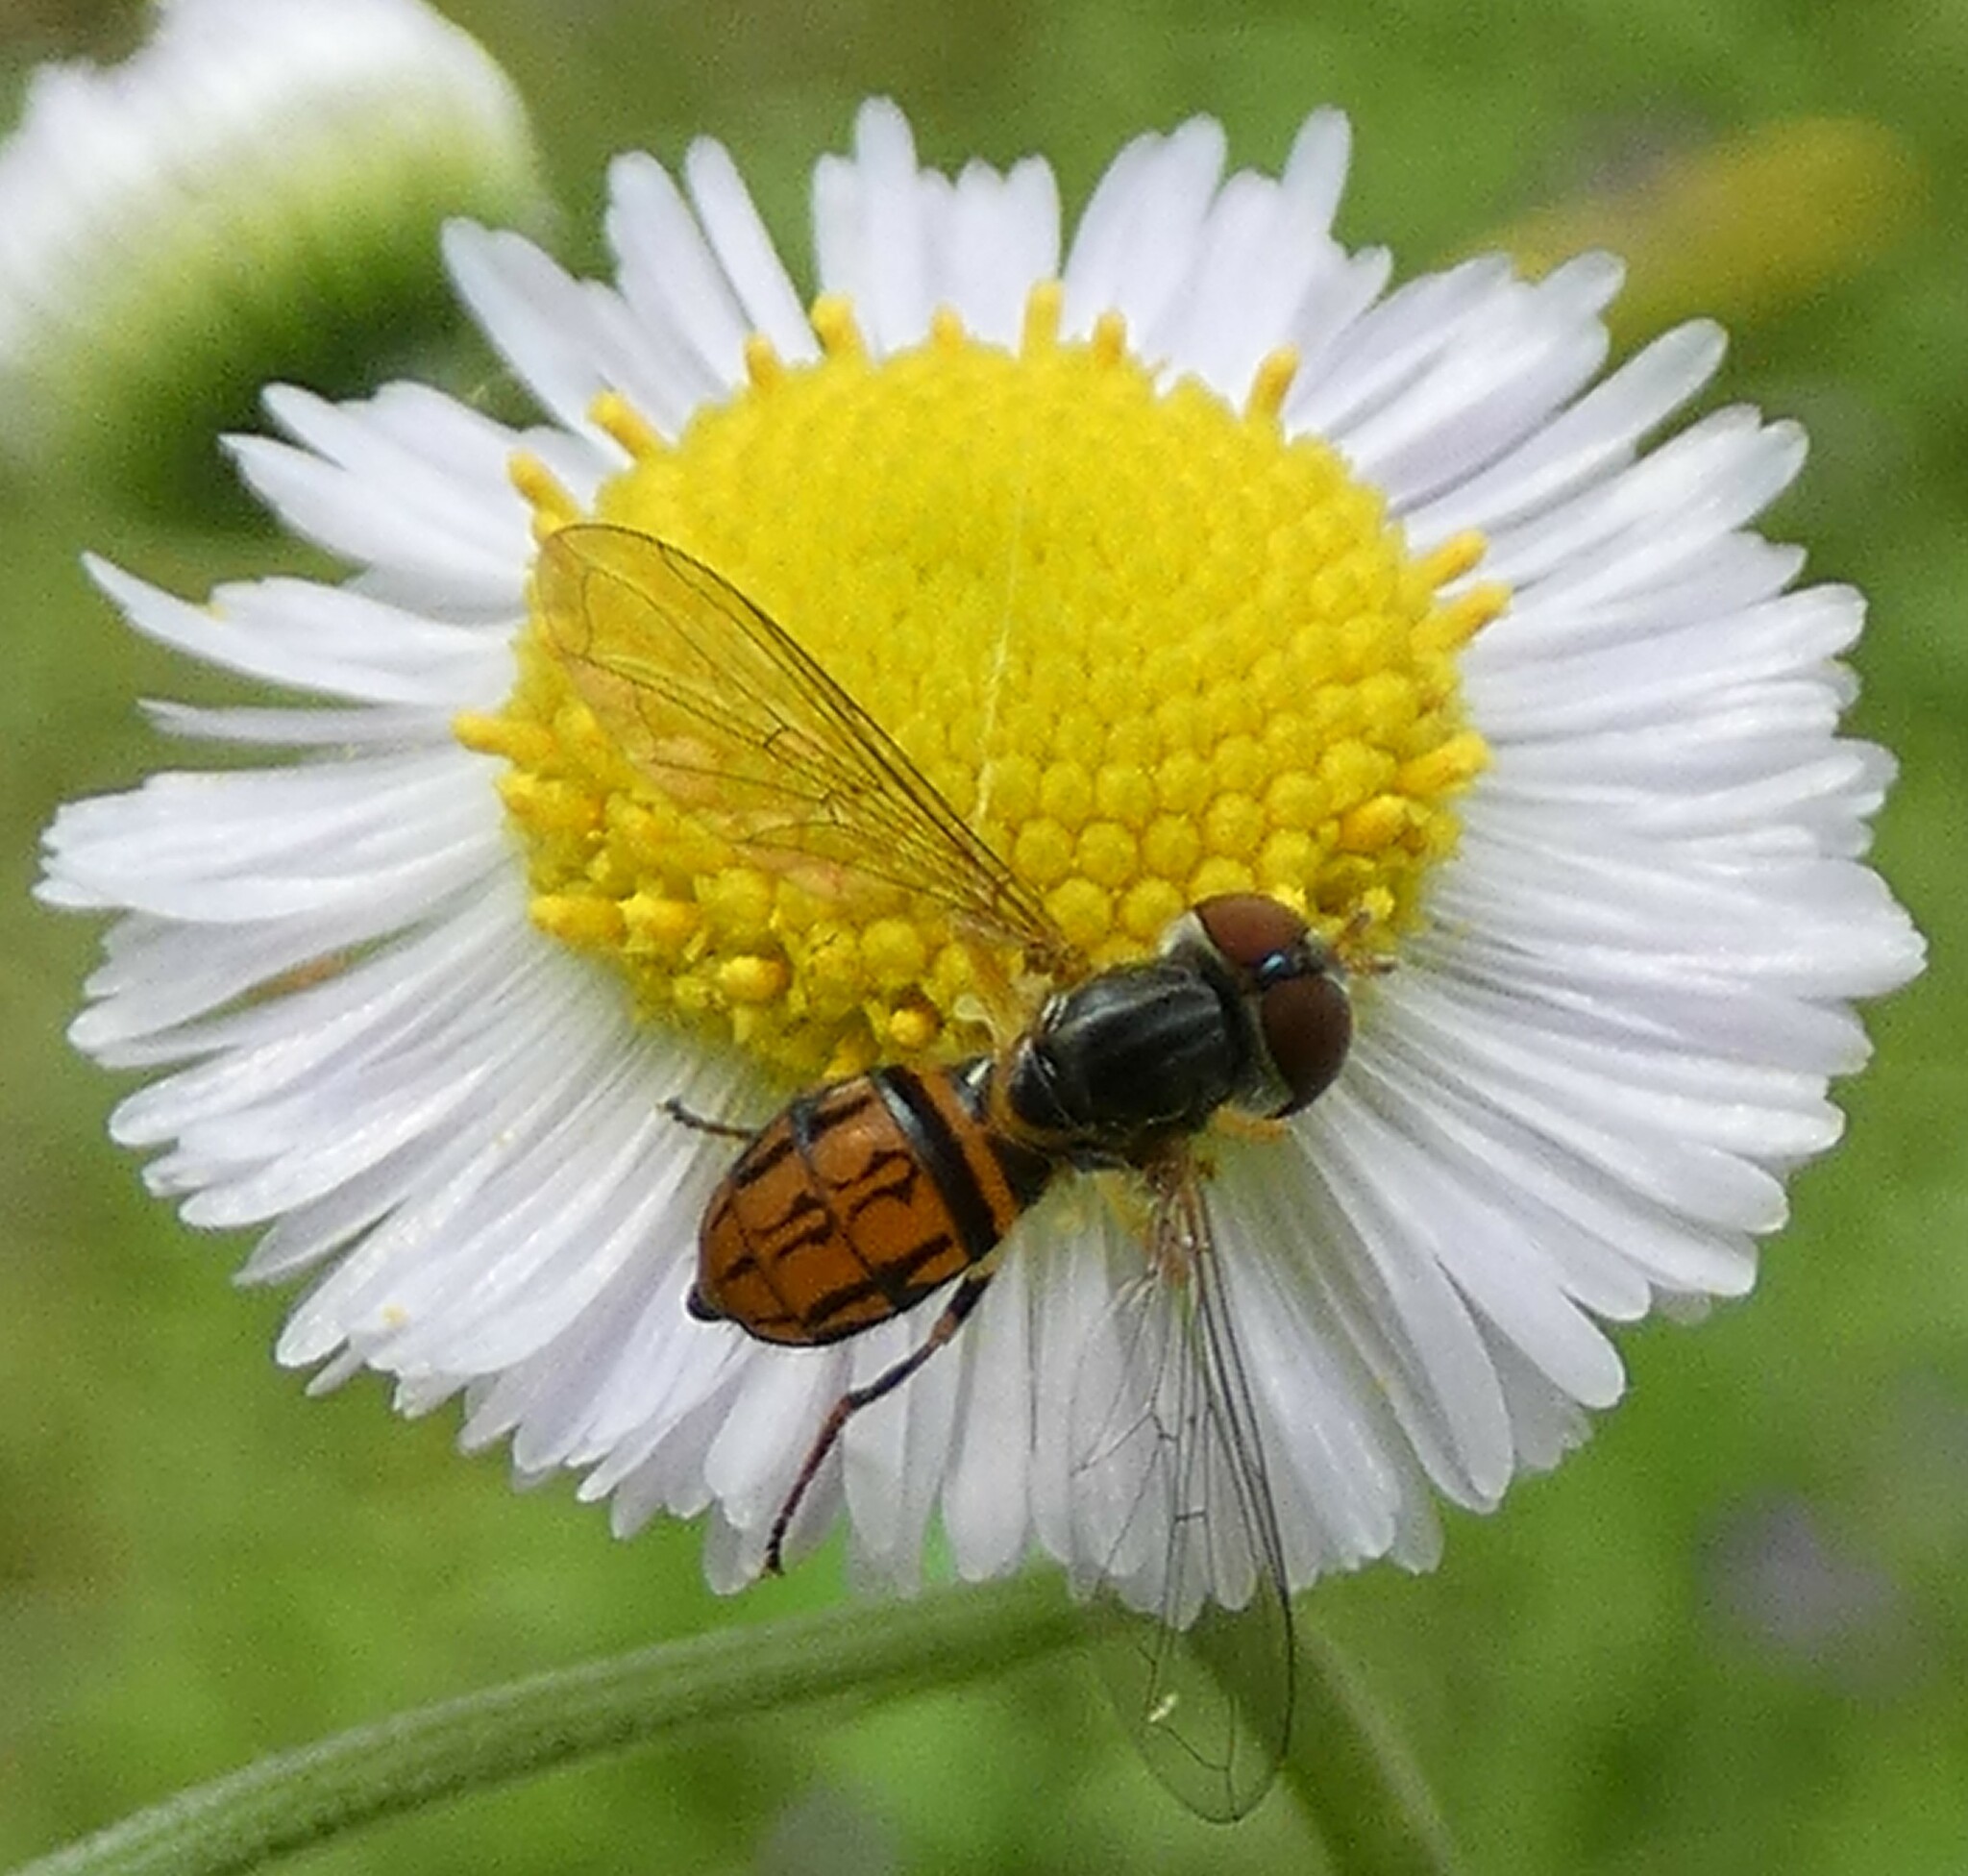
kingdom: Animalia
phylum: Arthropoda
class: Insecta
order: Diptera
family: Syrphidae
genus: Toxomerus
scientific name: Toxomerus boscii
